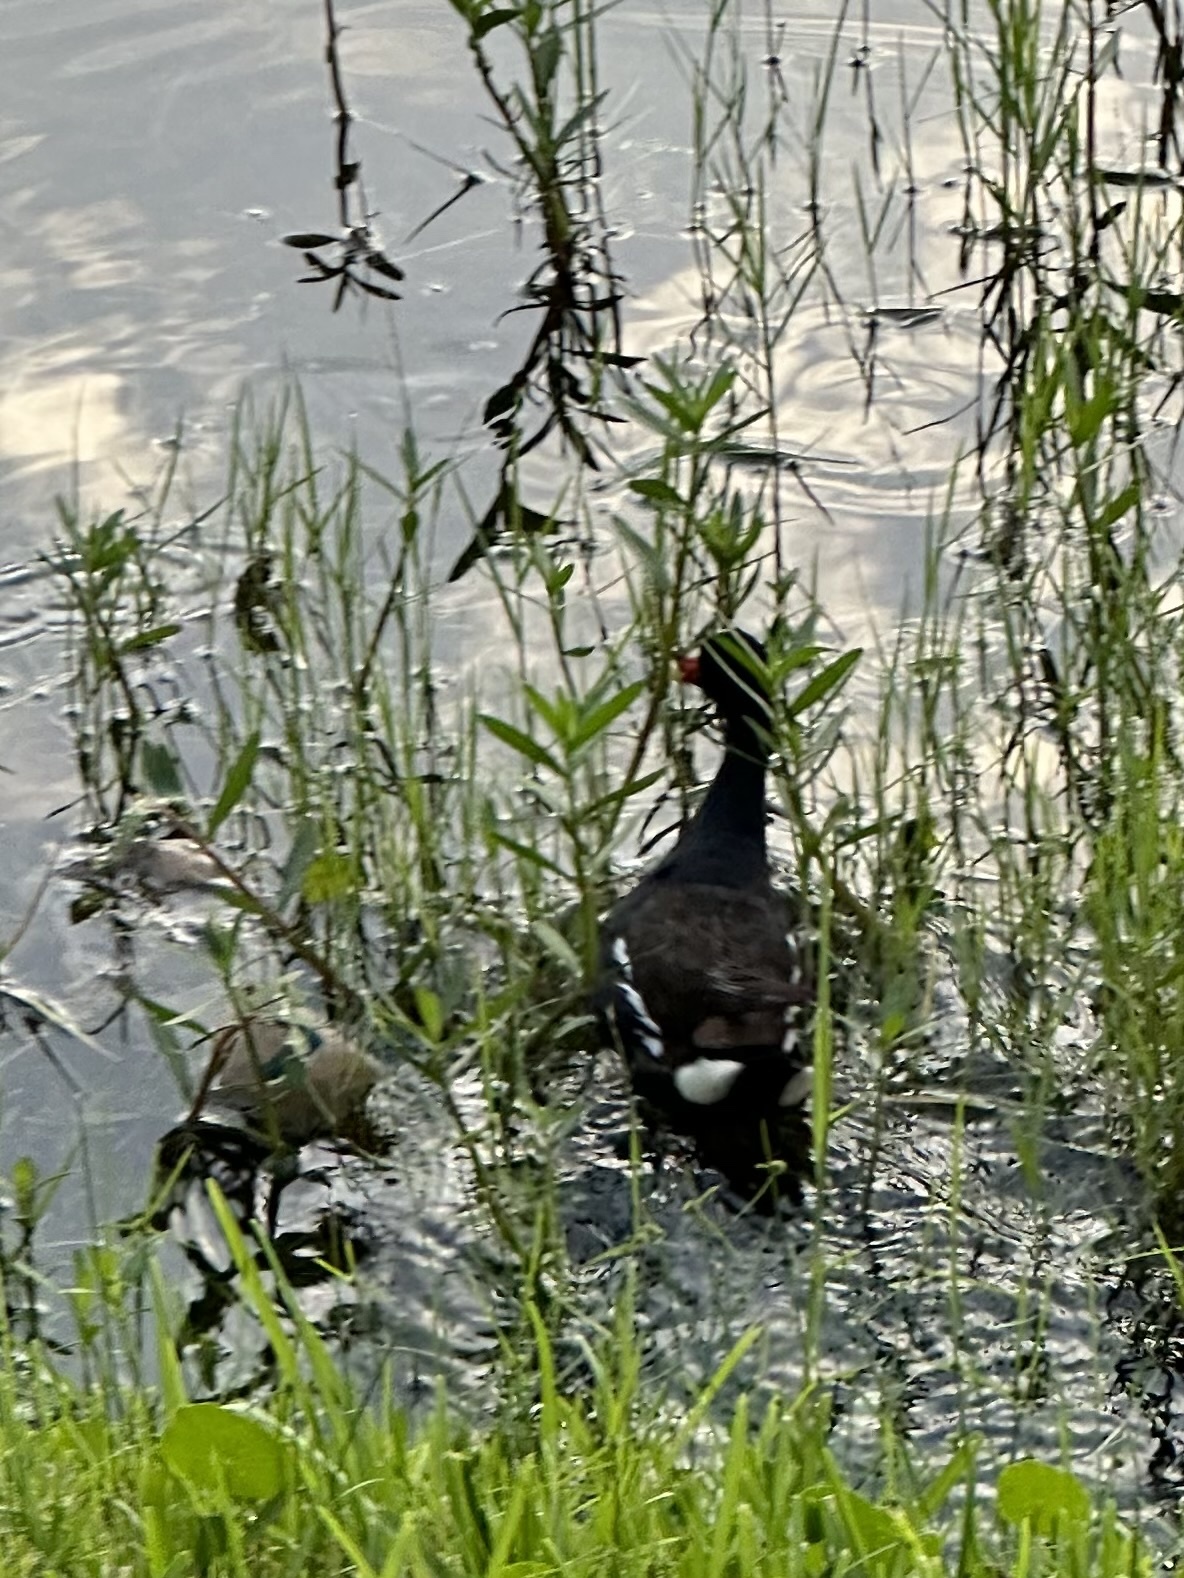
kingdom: Animalia
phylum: Chordata
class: Aves
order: Gruiformes
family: Rallidae
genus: Gallinula
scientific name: Gallinula chloropus
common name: Common moorhen
